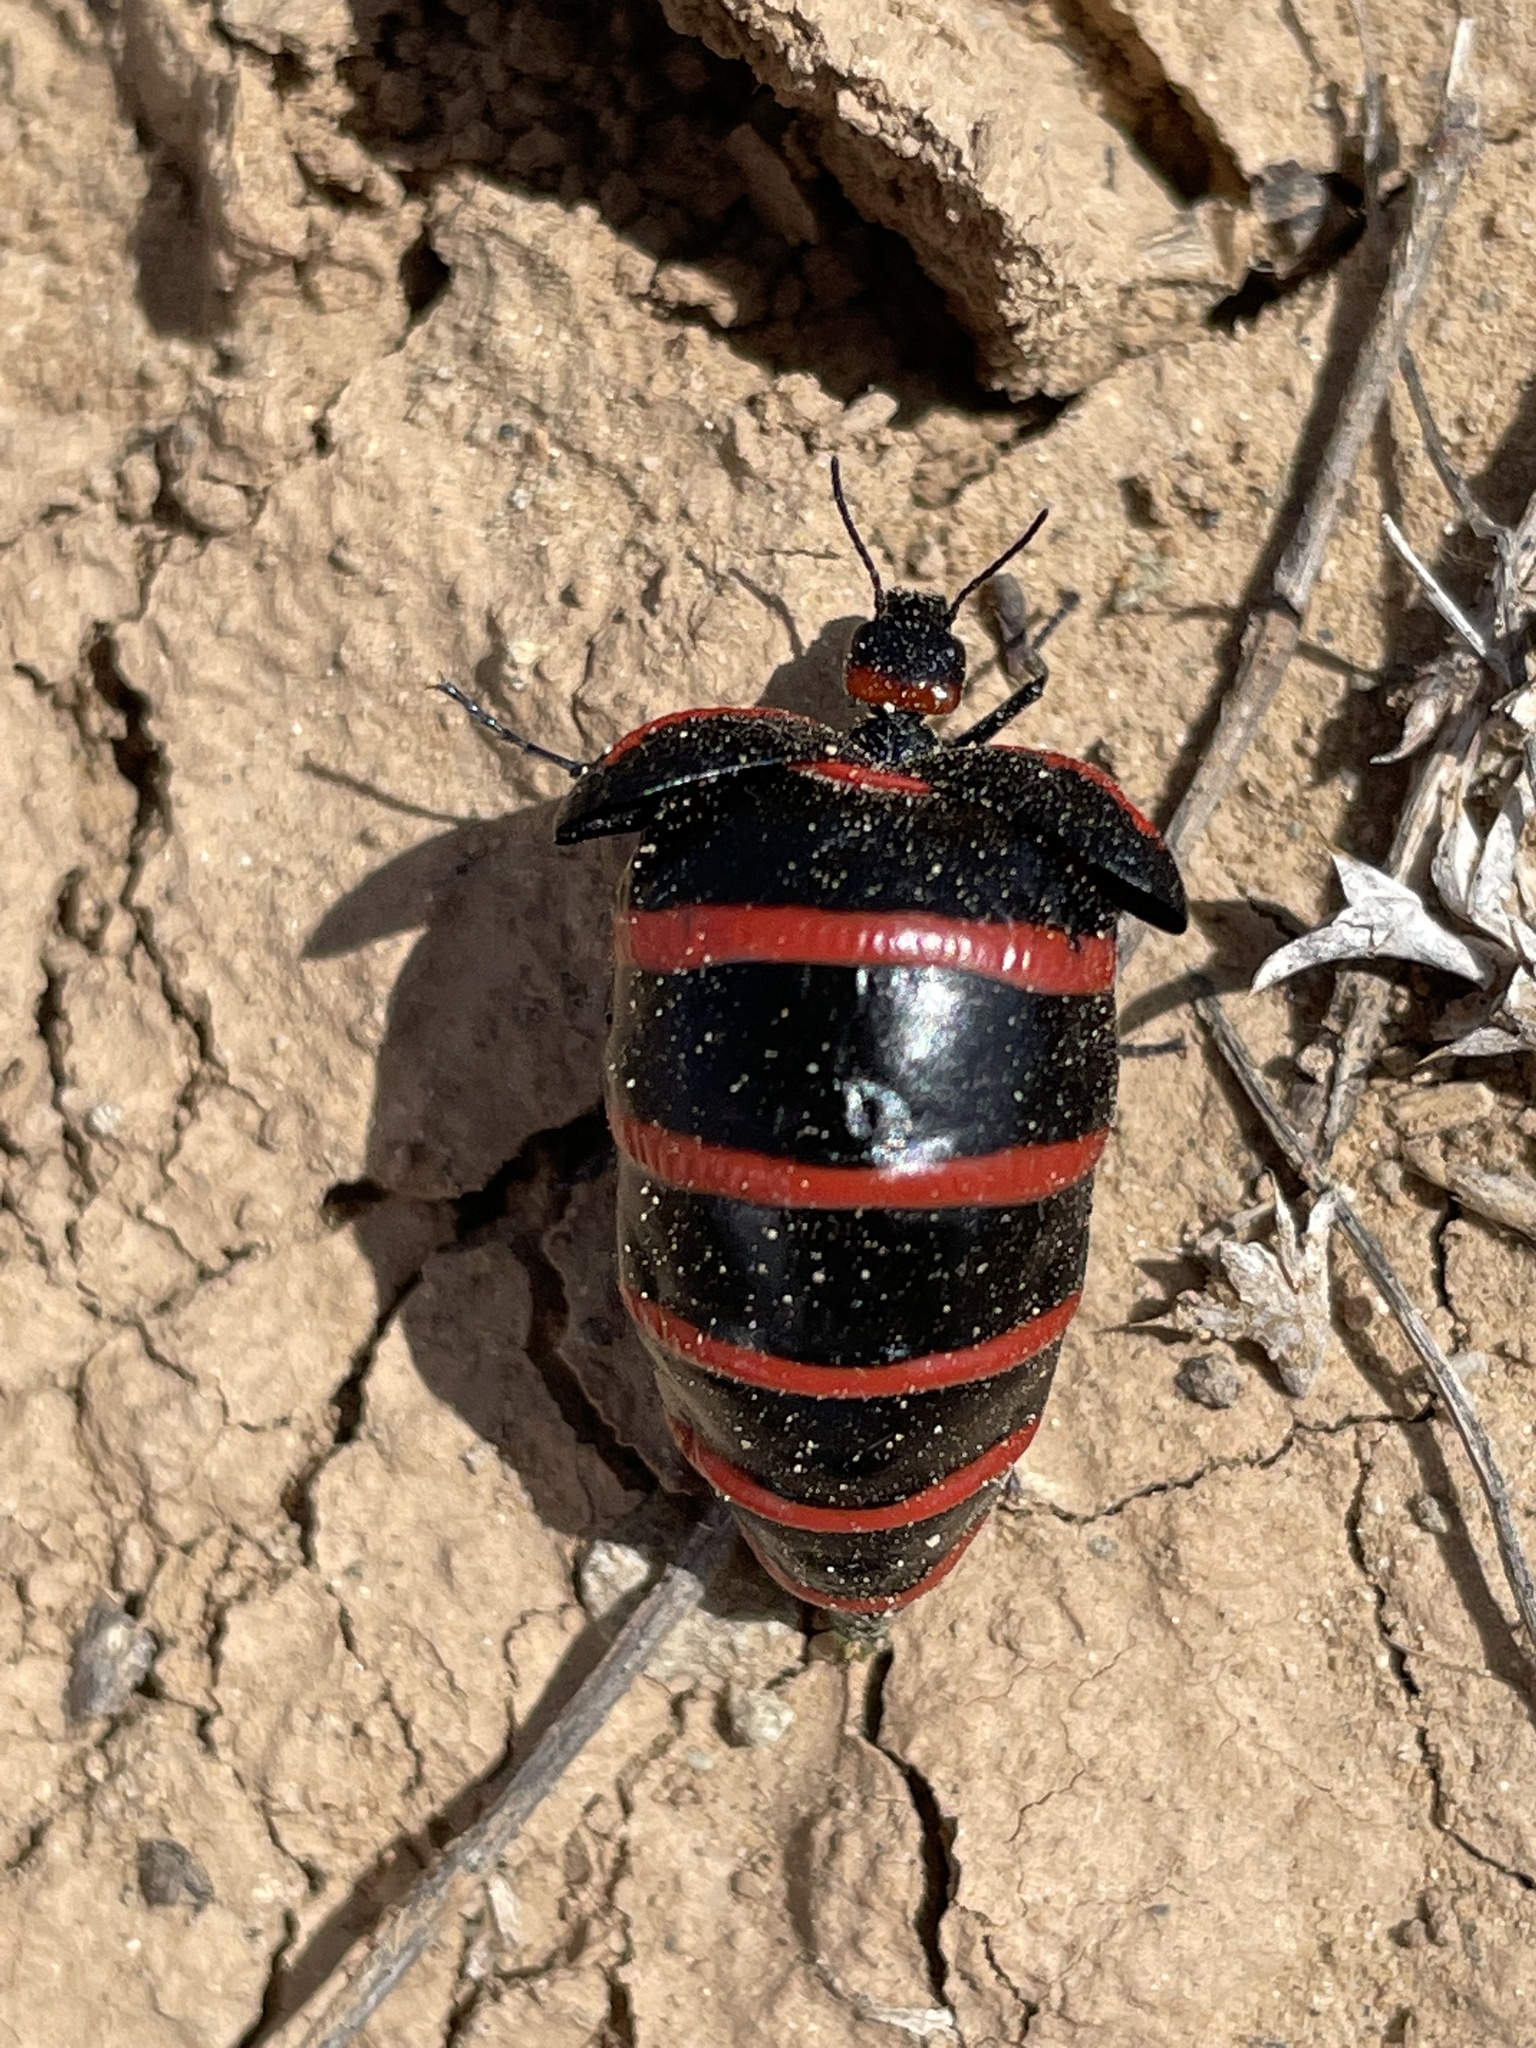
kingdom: Animalia
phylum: Arthropoda
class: Insecta
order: Coleoptera
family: Meloidae
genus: Megetra
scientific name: Megetra vittata
